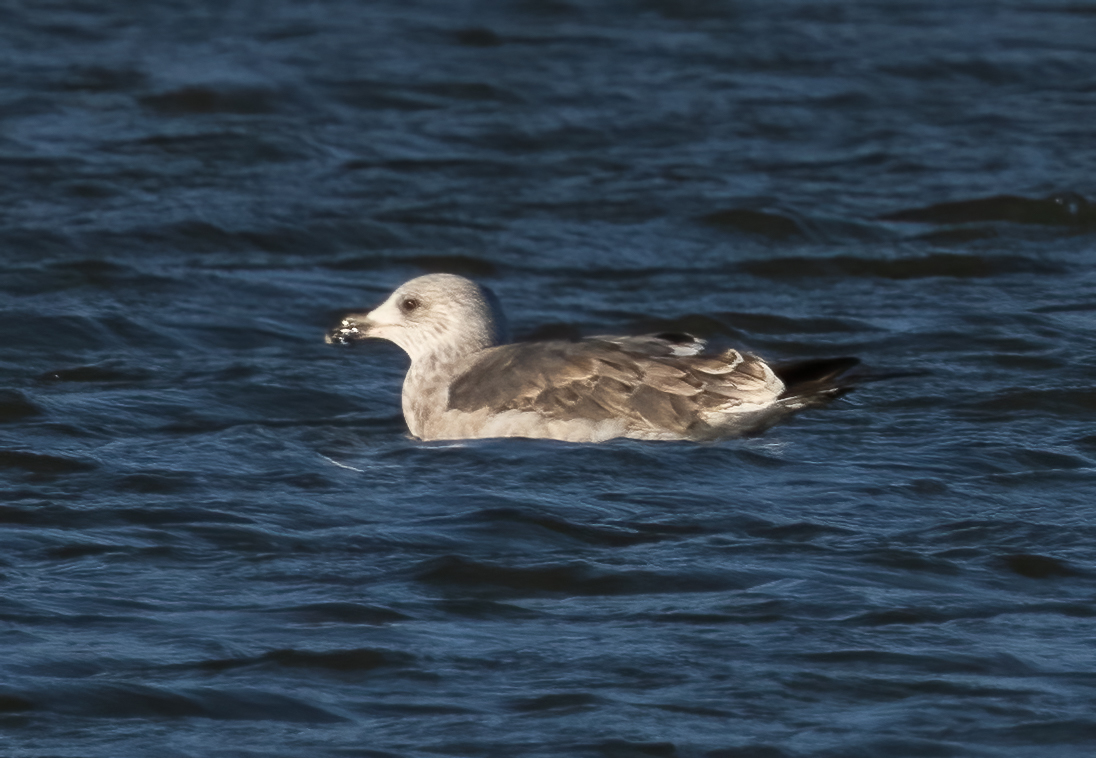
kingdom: Animalia
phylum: Chordata
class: Aves
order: Charadriiformes
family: Laridae
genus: Larus
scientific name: Larus fuscus
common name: Lesser black-backed gull
